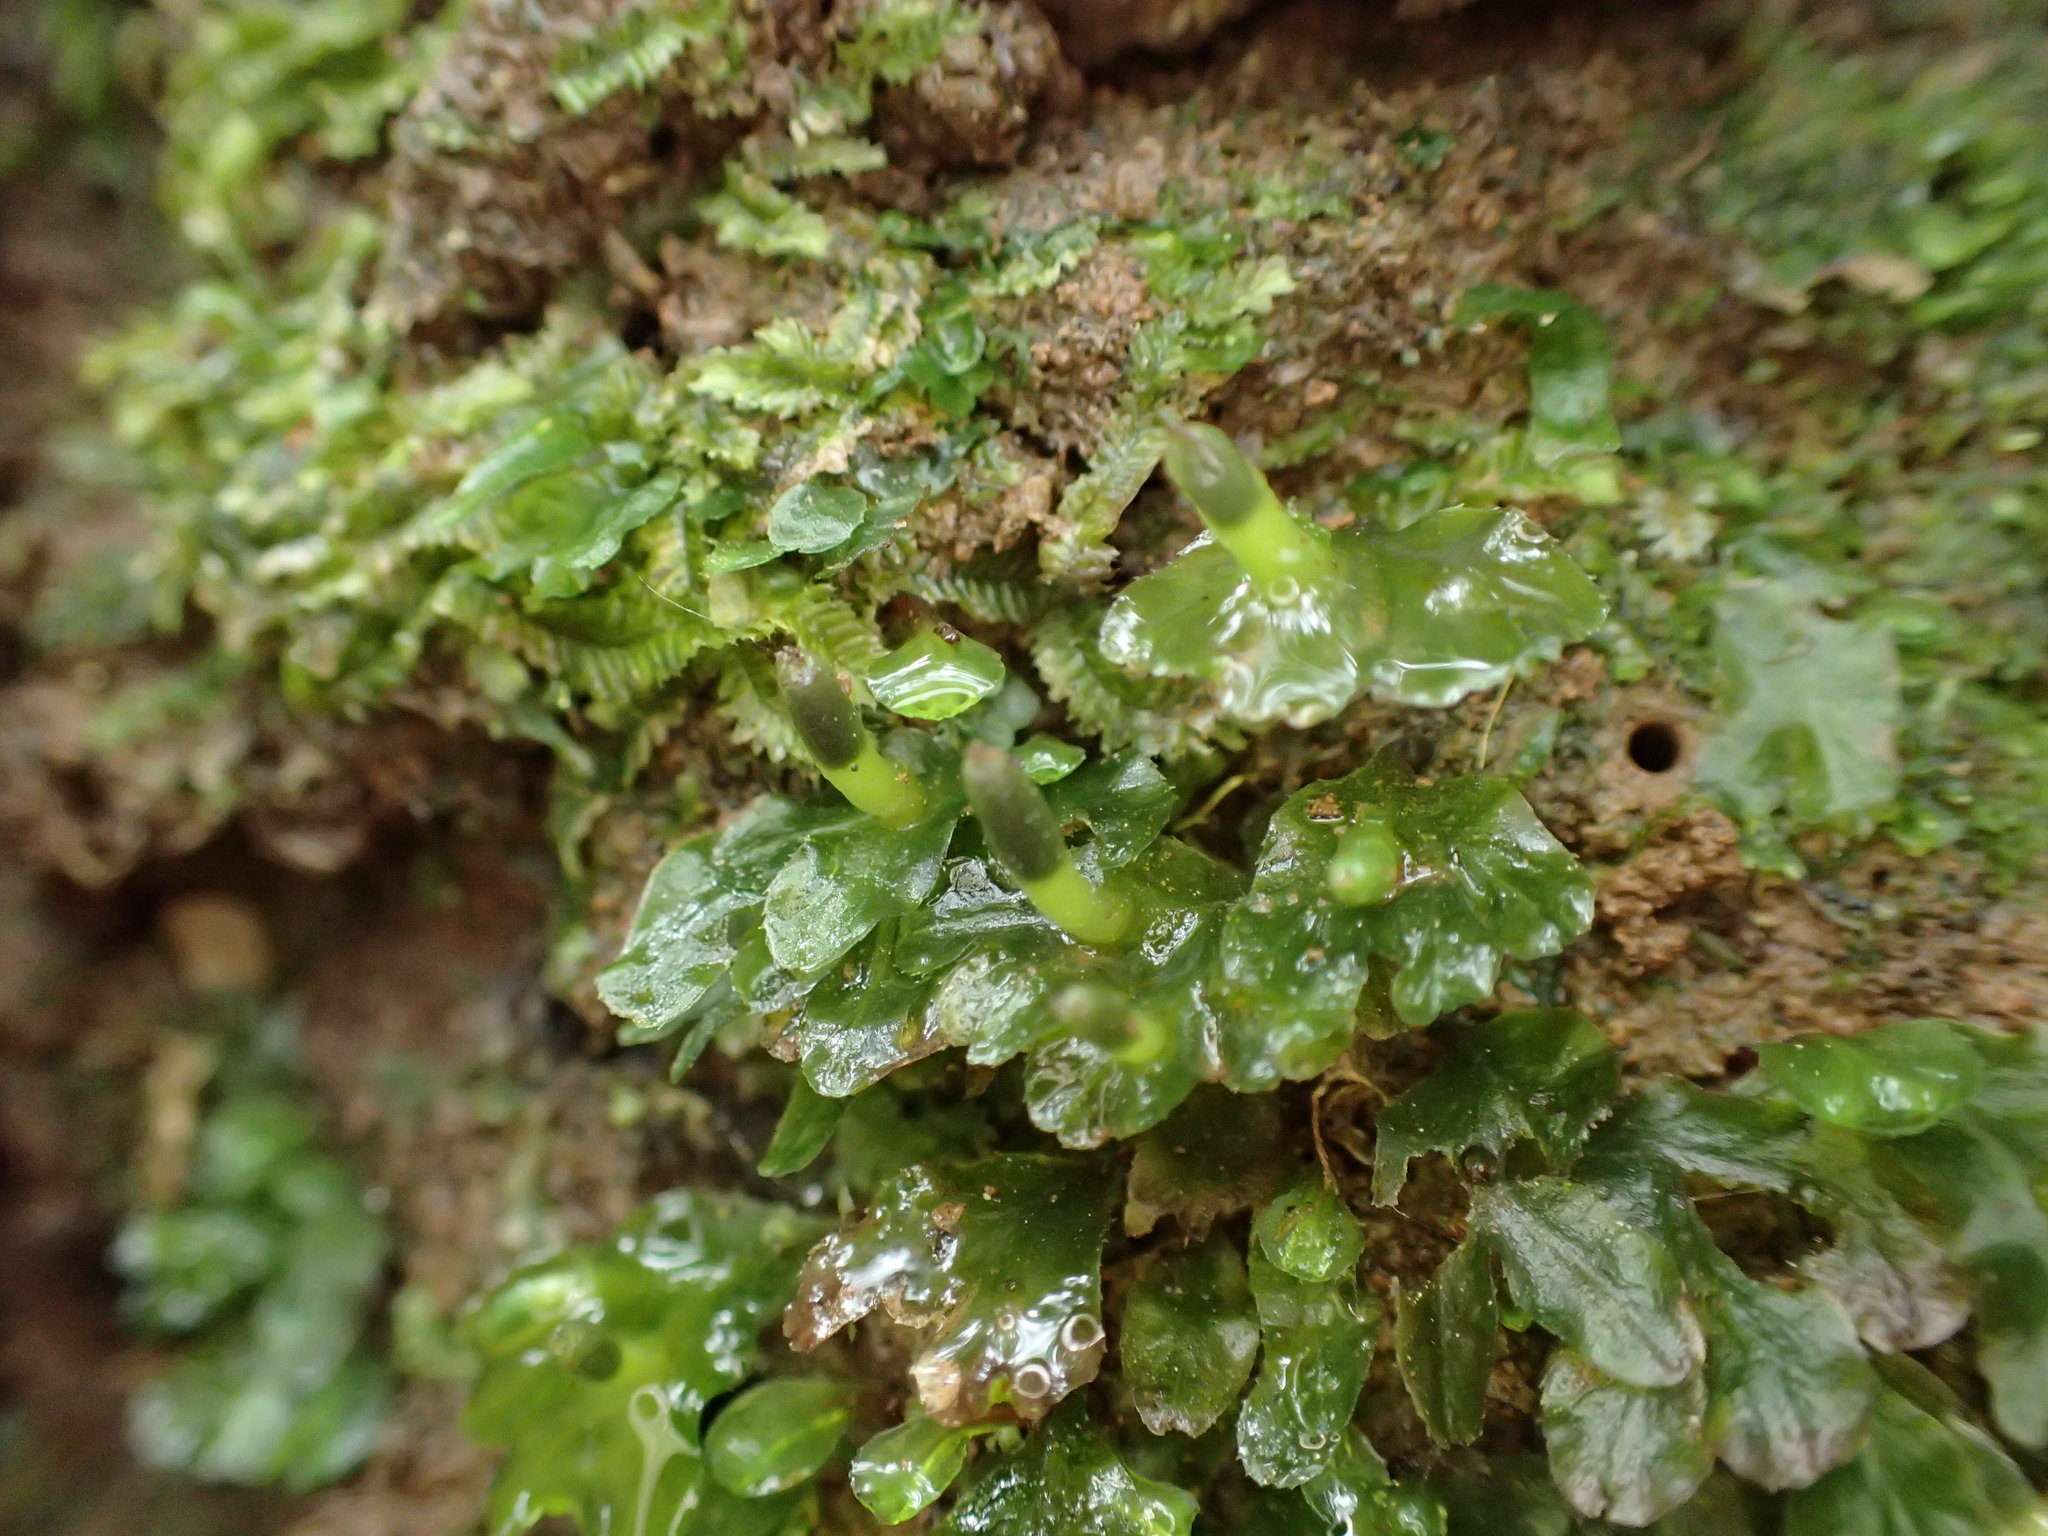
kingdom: Plantae
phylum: Marchantiophyta
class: Jungermanniopsida
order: Pallaviciniales
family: Pallaviciniaceae
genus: Symphyogyna
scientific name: Symphyogyna hymenophyllum
